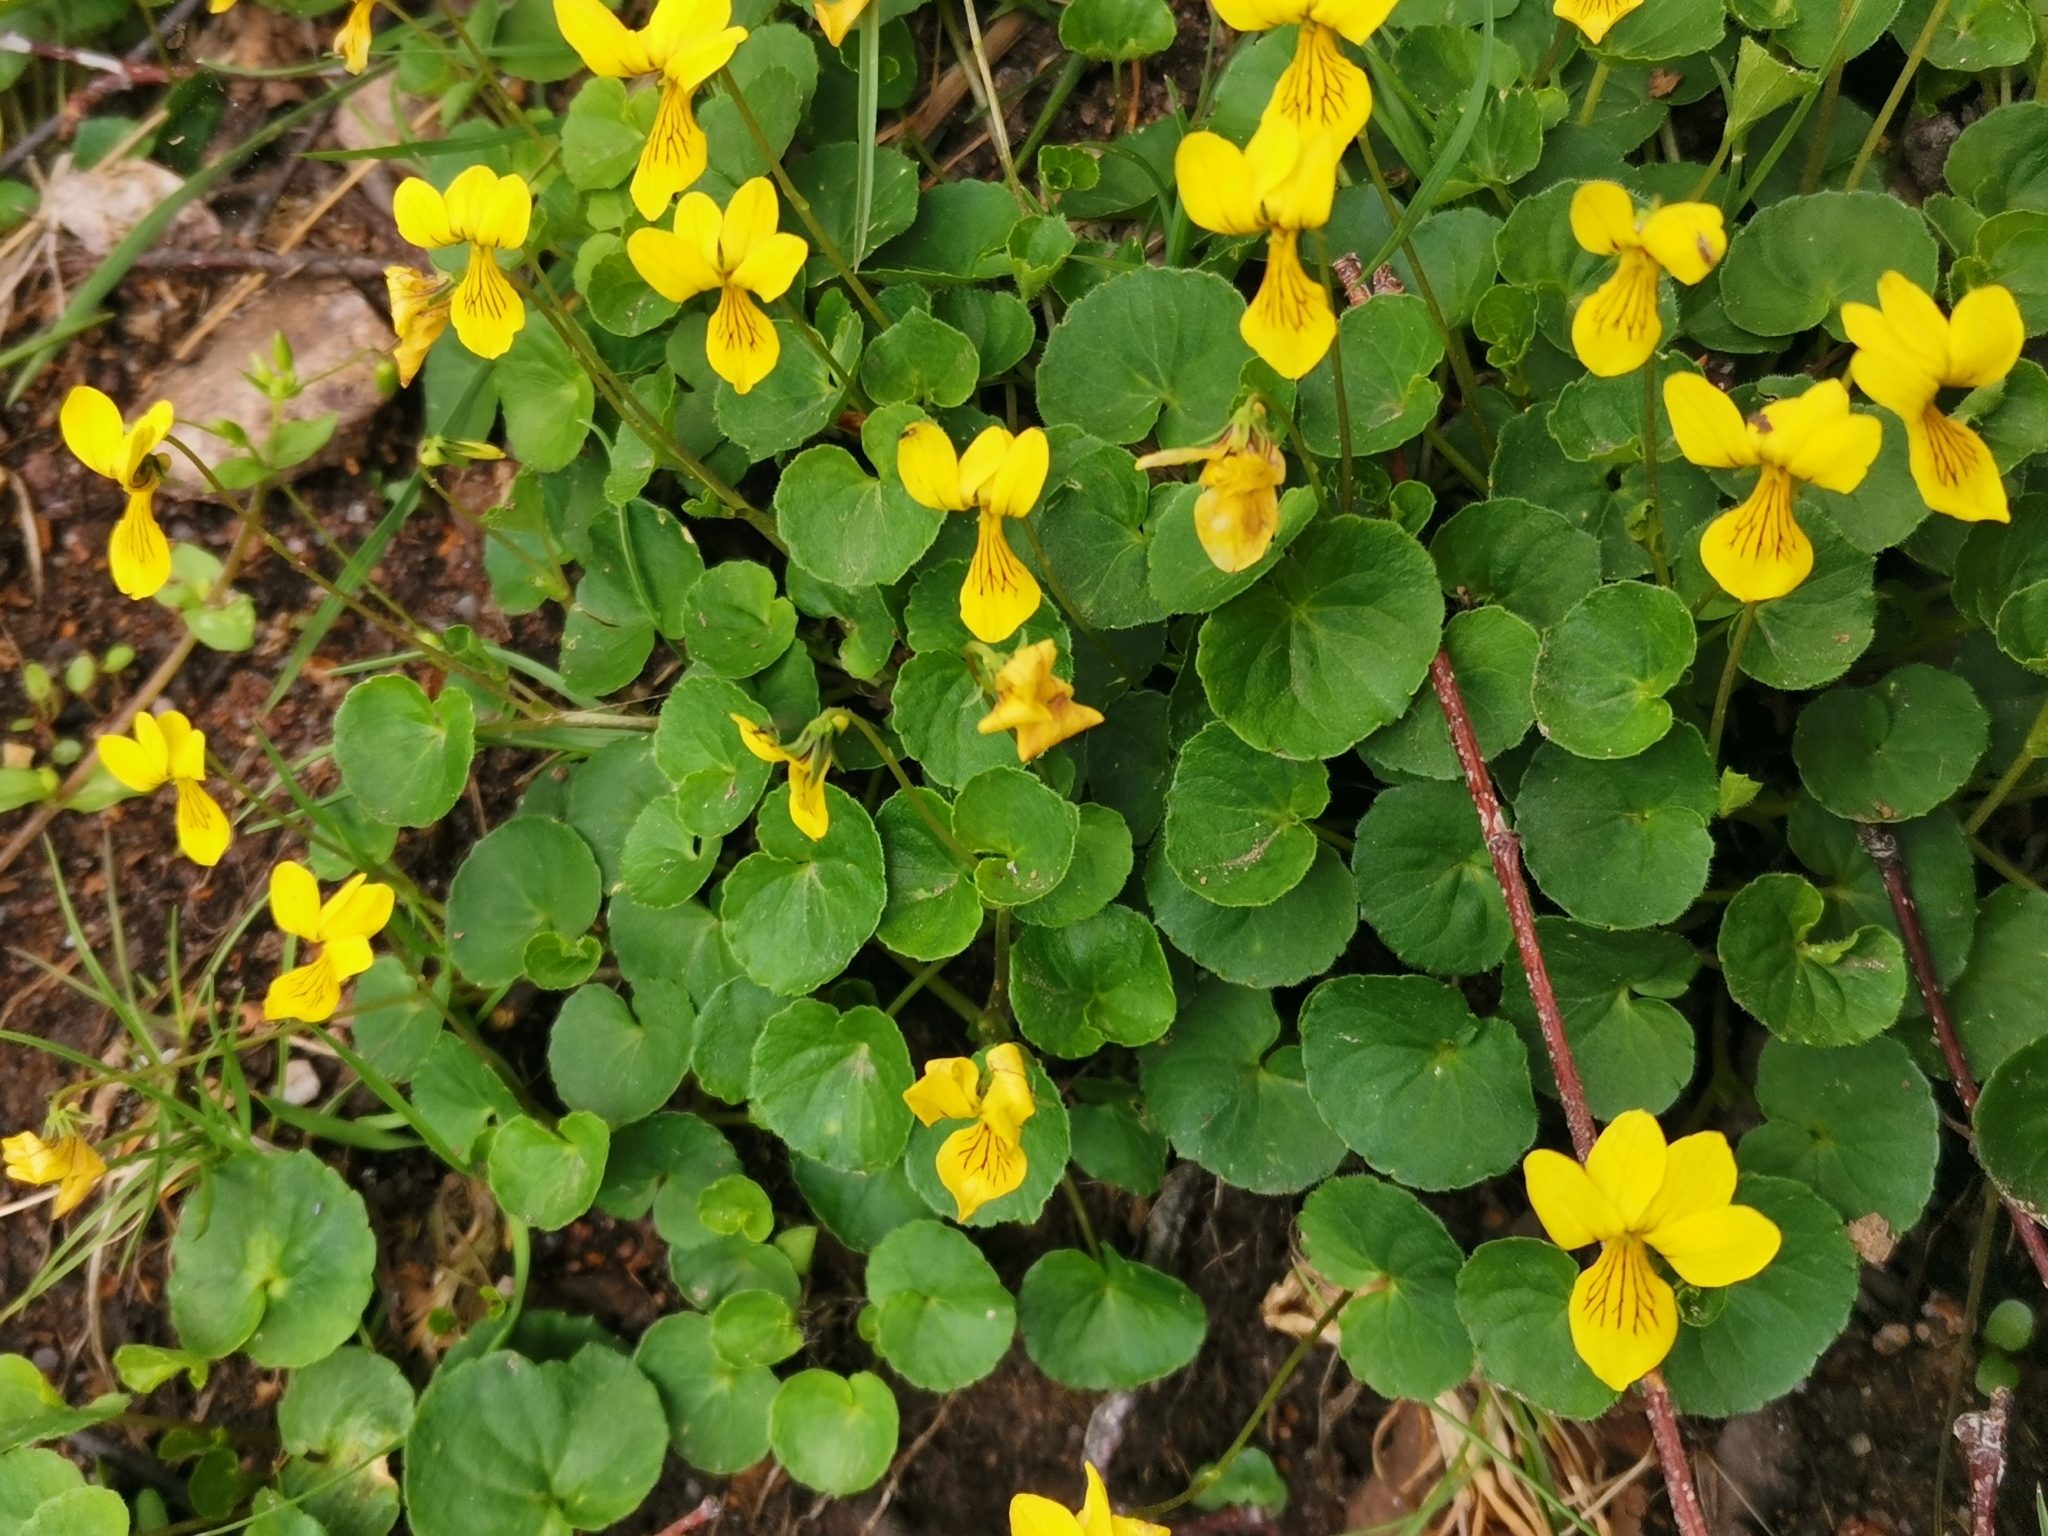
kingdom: Plantae
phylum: Tracheophyta
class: Magnoliopsida
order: Malpighiales
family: Violaceae
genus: Viola
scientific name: Viola biflora
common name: Alpine yellow violet
